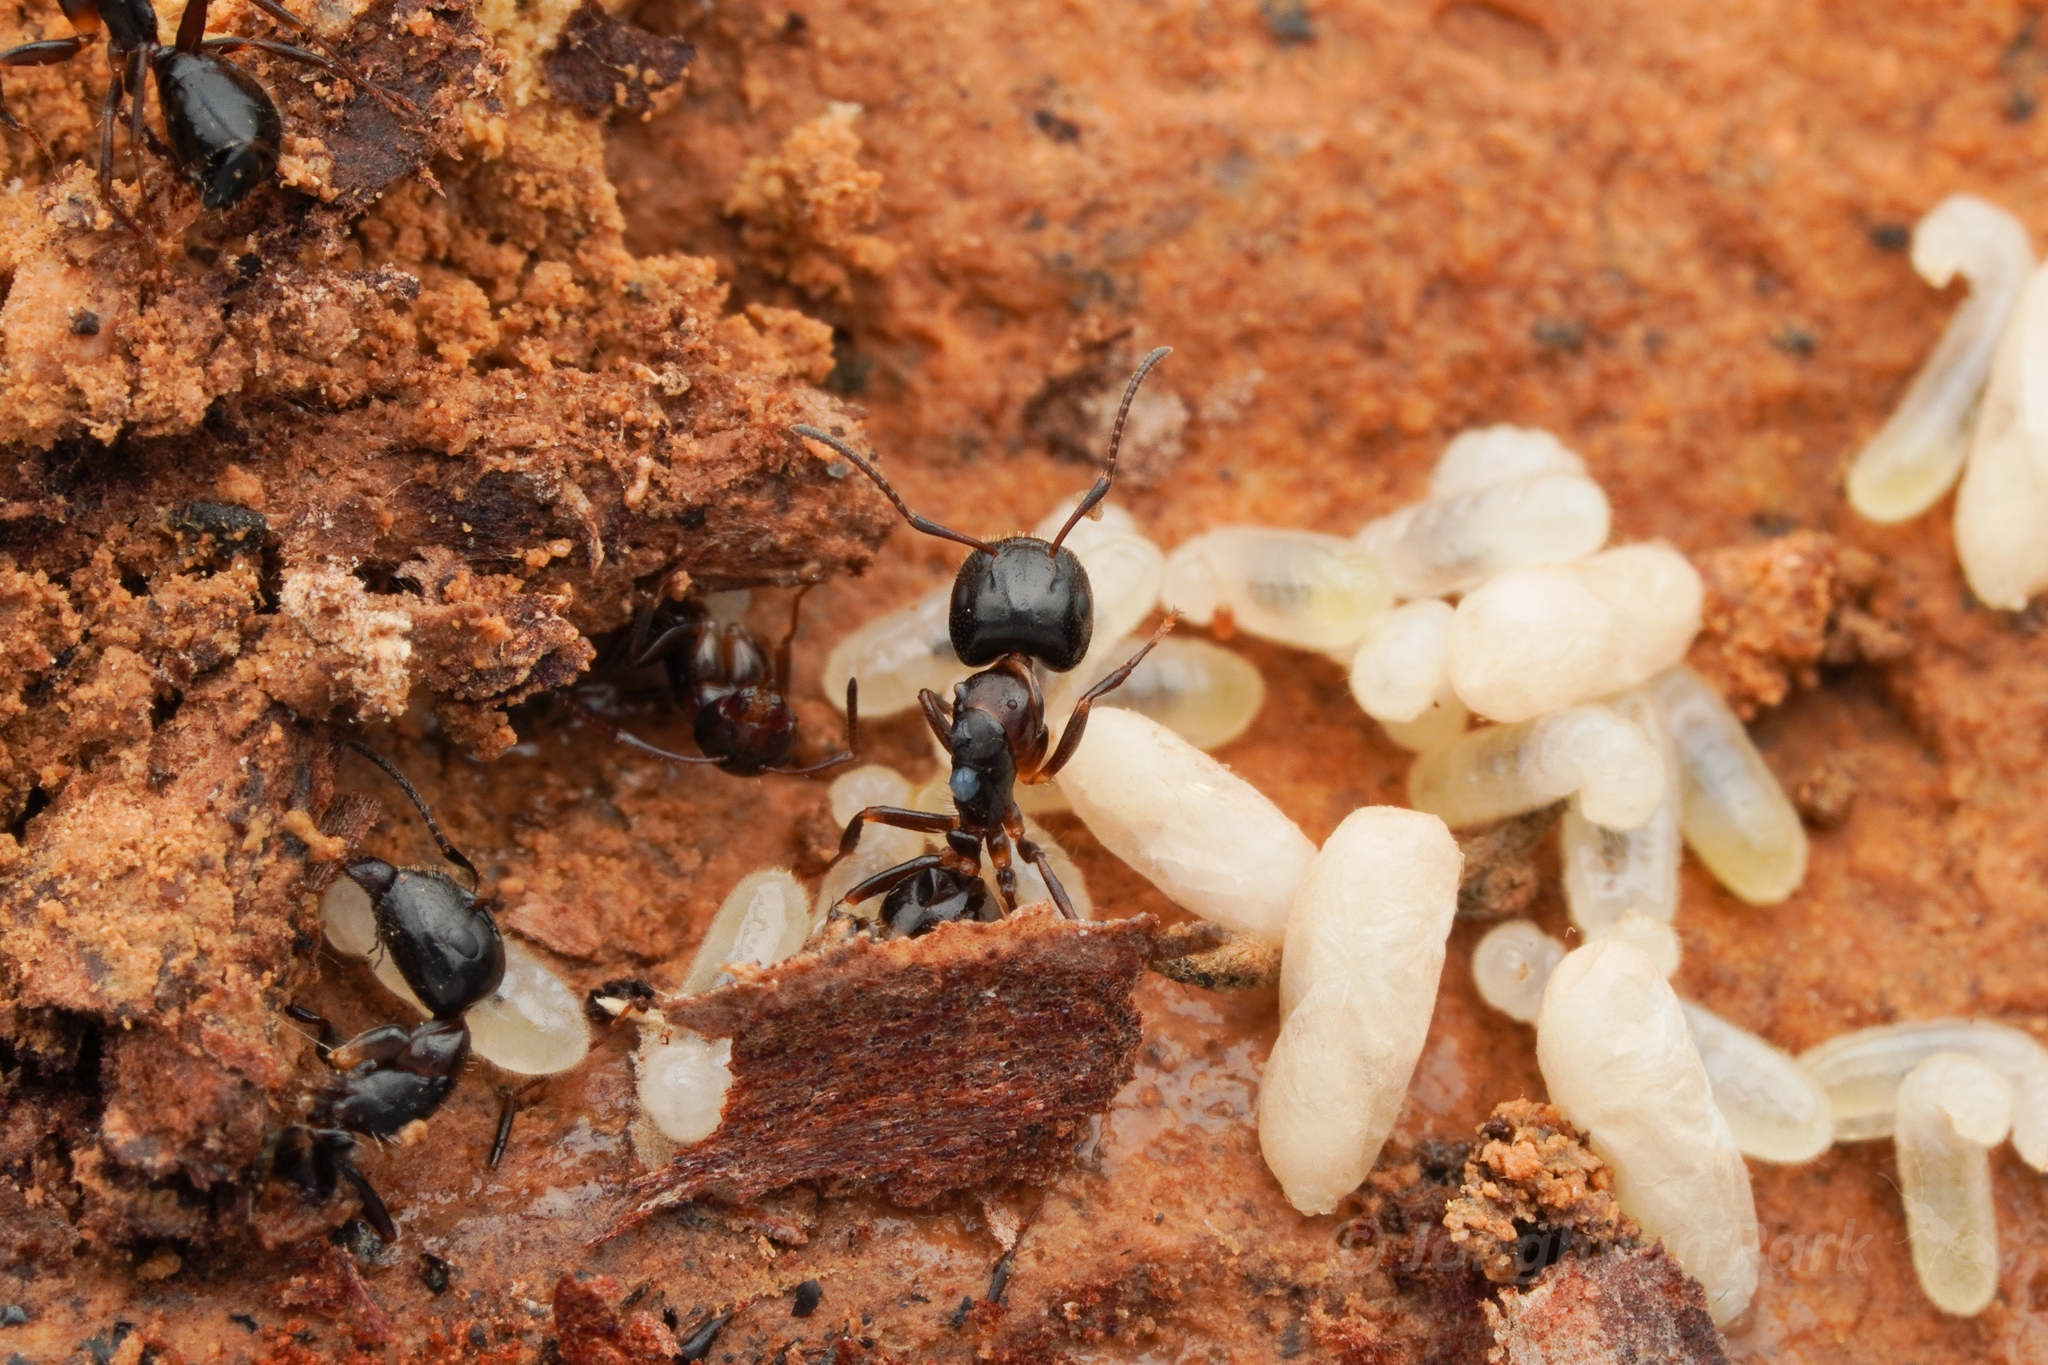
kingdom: Animalia
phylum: Arthropoda
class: Insecta
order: Hymenoptera
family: Formicidae
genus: Camponotus
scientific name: Camponotus vitiosus
